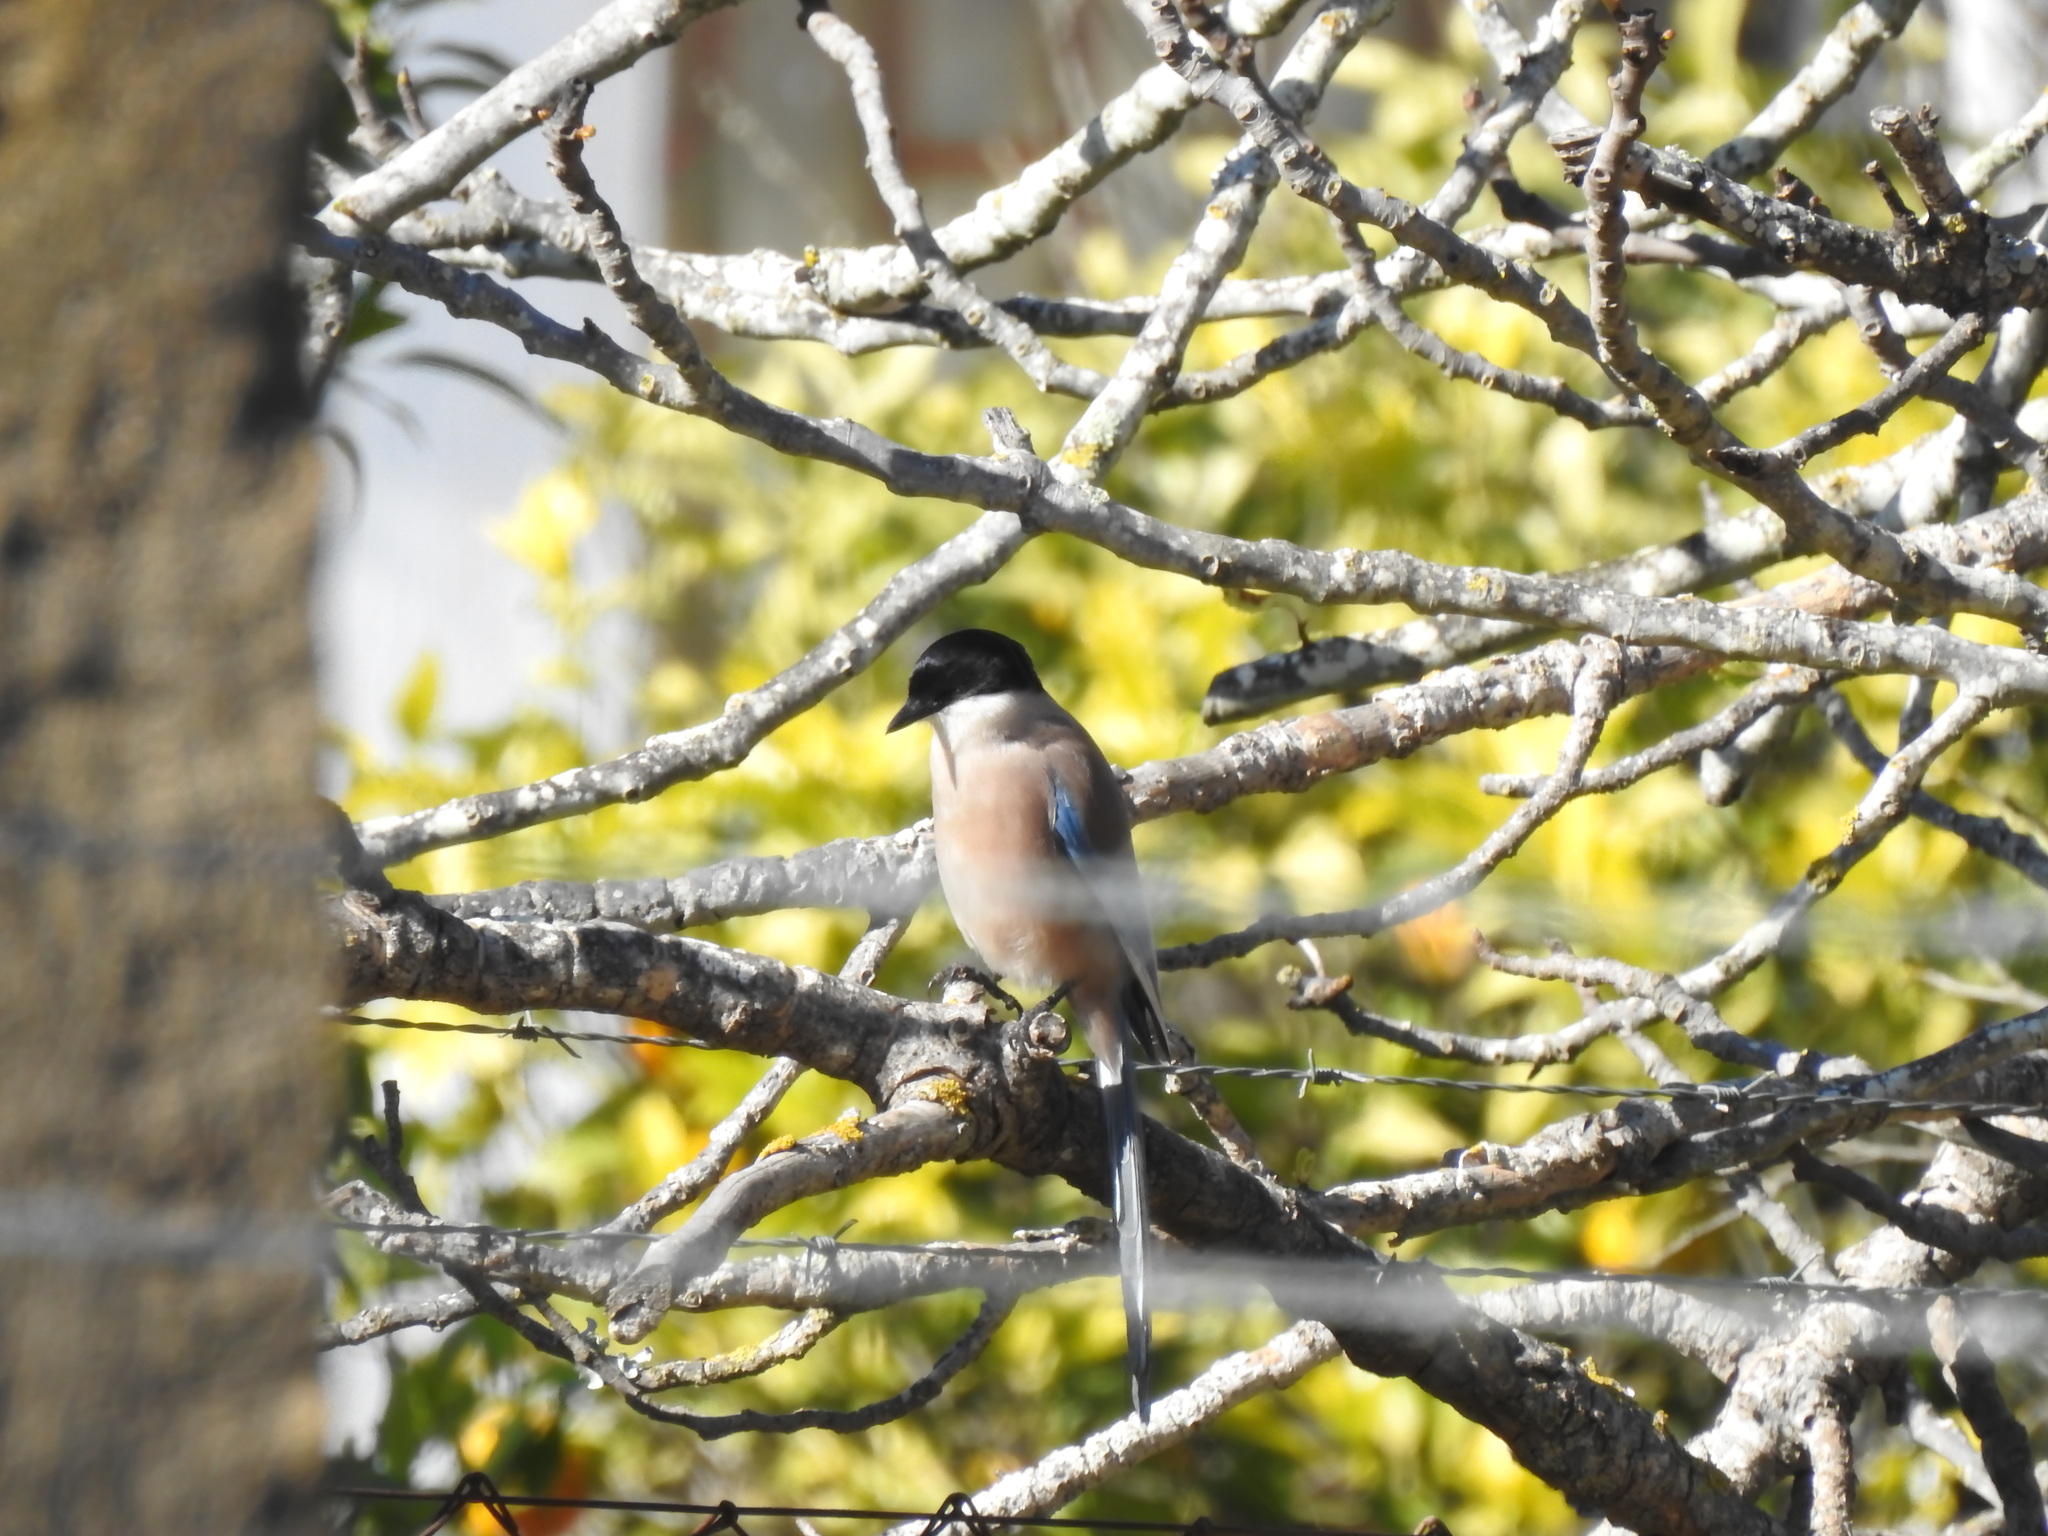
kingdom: Animalia
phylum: Chordata
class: Aves
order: Passeriformes
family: Corvidae
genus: Cyanopica
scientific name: Cyanopica cooki
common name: Iberian magpie
